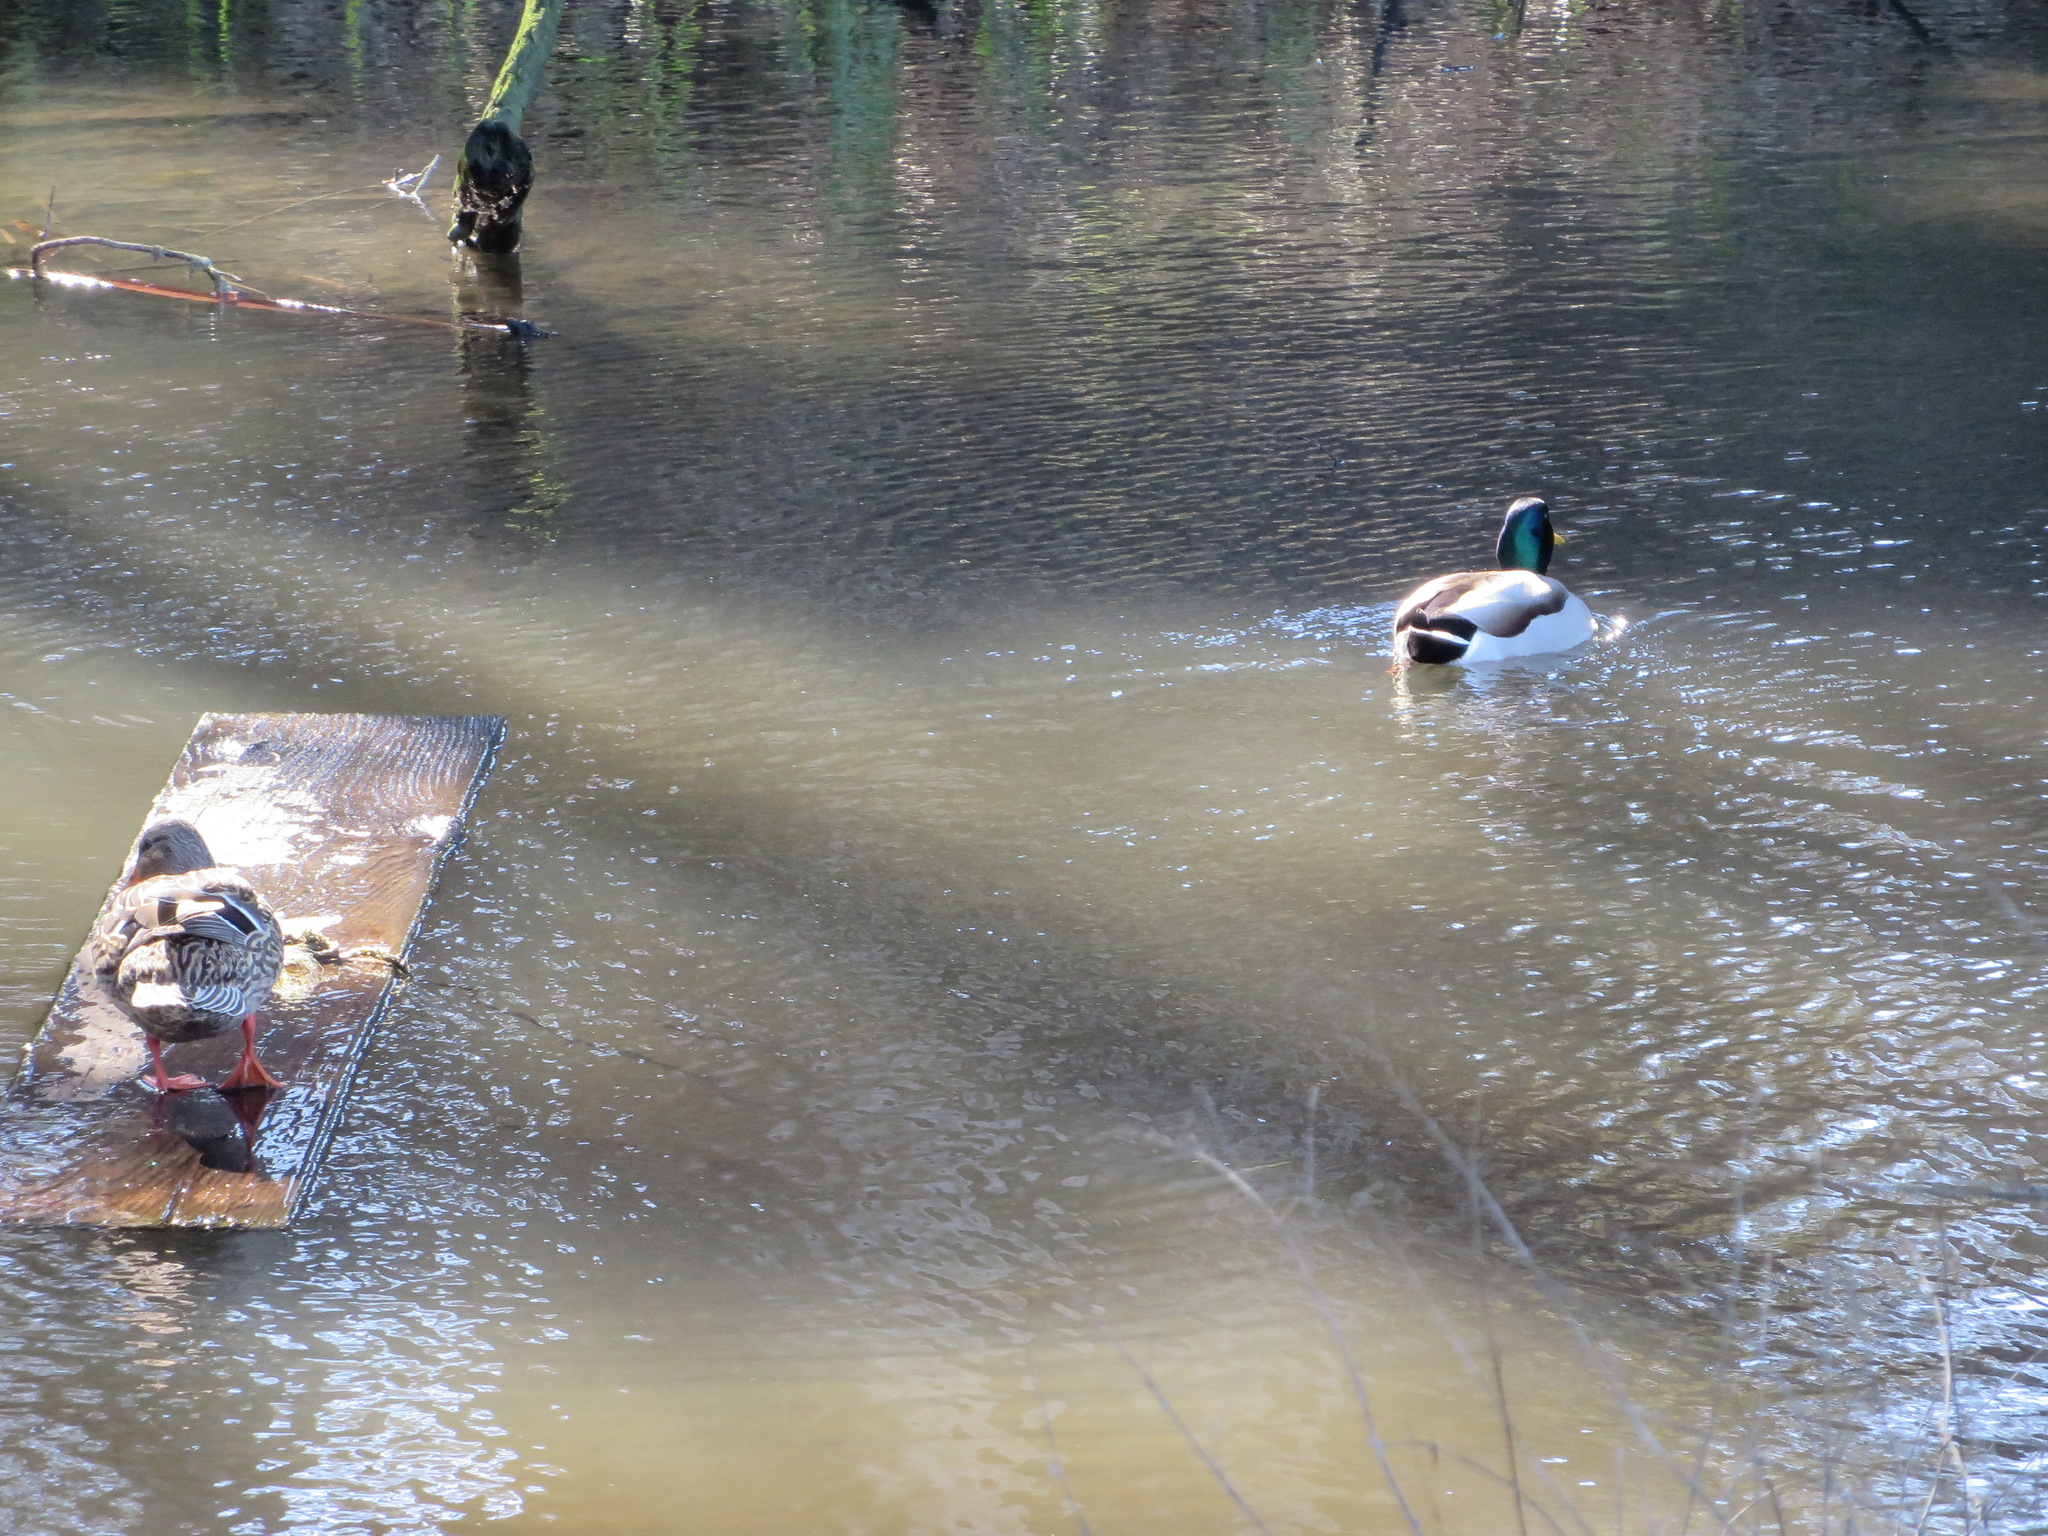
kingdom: Animalia
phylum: Chordata
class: Aves
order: Anseriformes
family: Anatidae
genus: Anas
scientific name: Anas platyrhynchos
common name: Mallard
